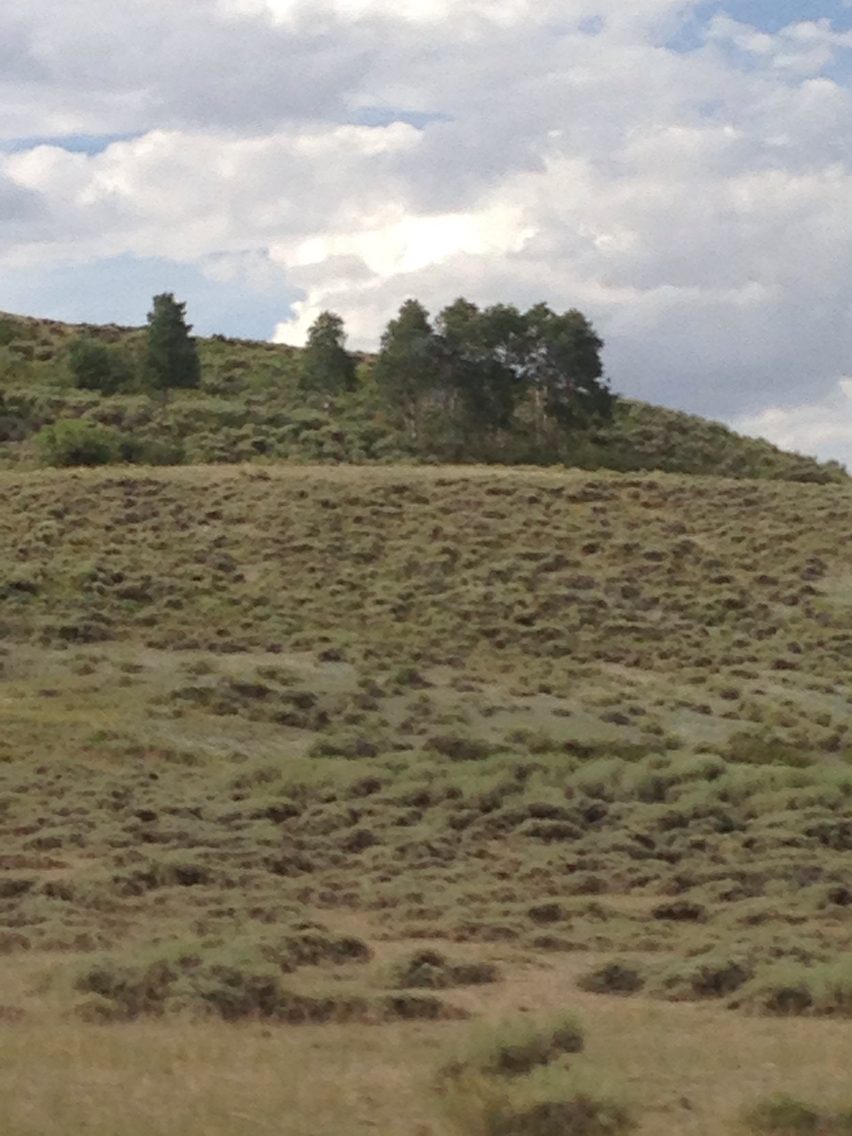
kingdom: Plantae
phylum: Tracheophyta
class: Magnoliopsida
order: Malpighiales
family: Salicaceae
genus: Populus
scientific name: Populus tremuloides
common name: Quaking aspen
